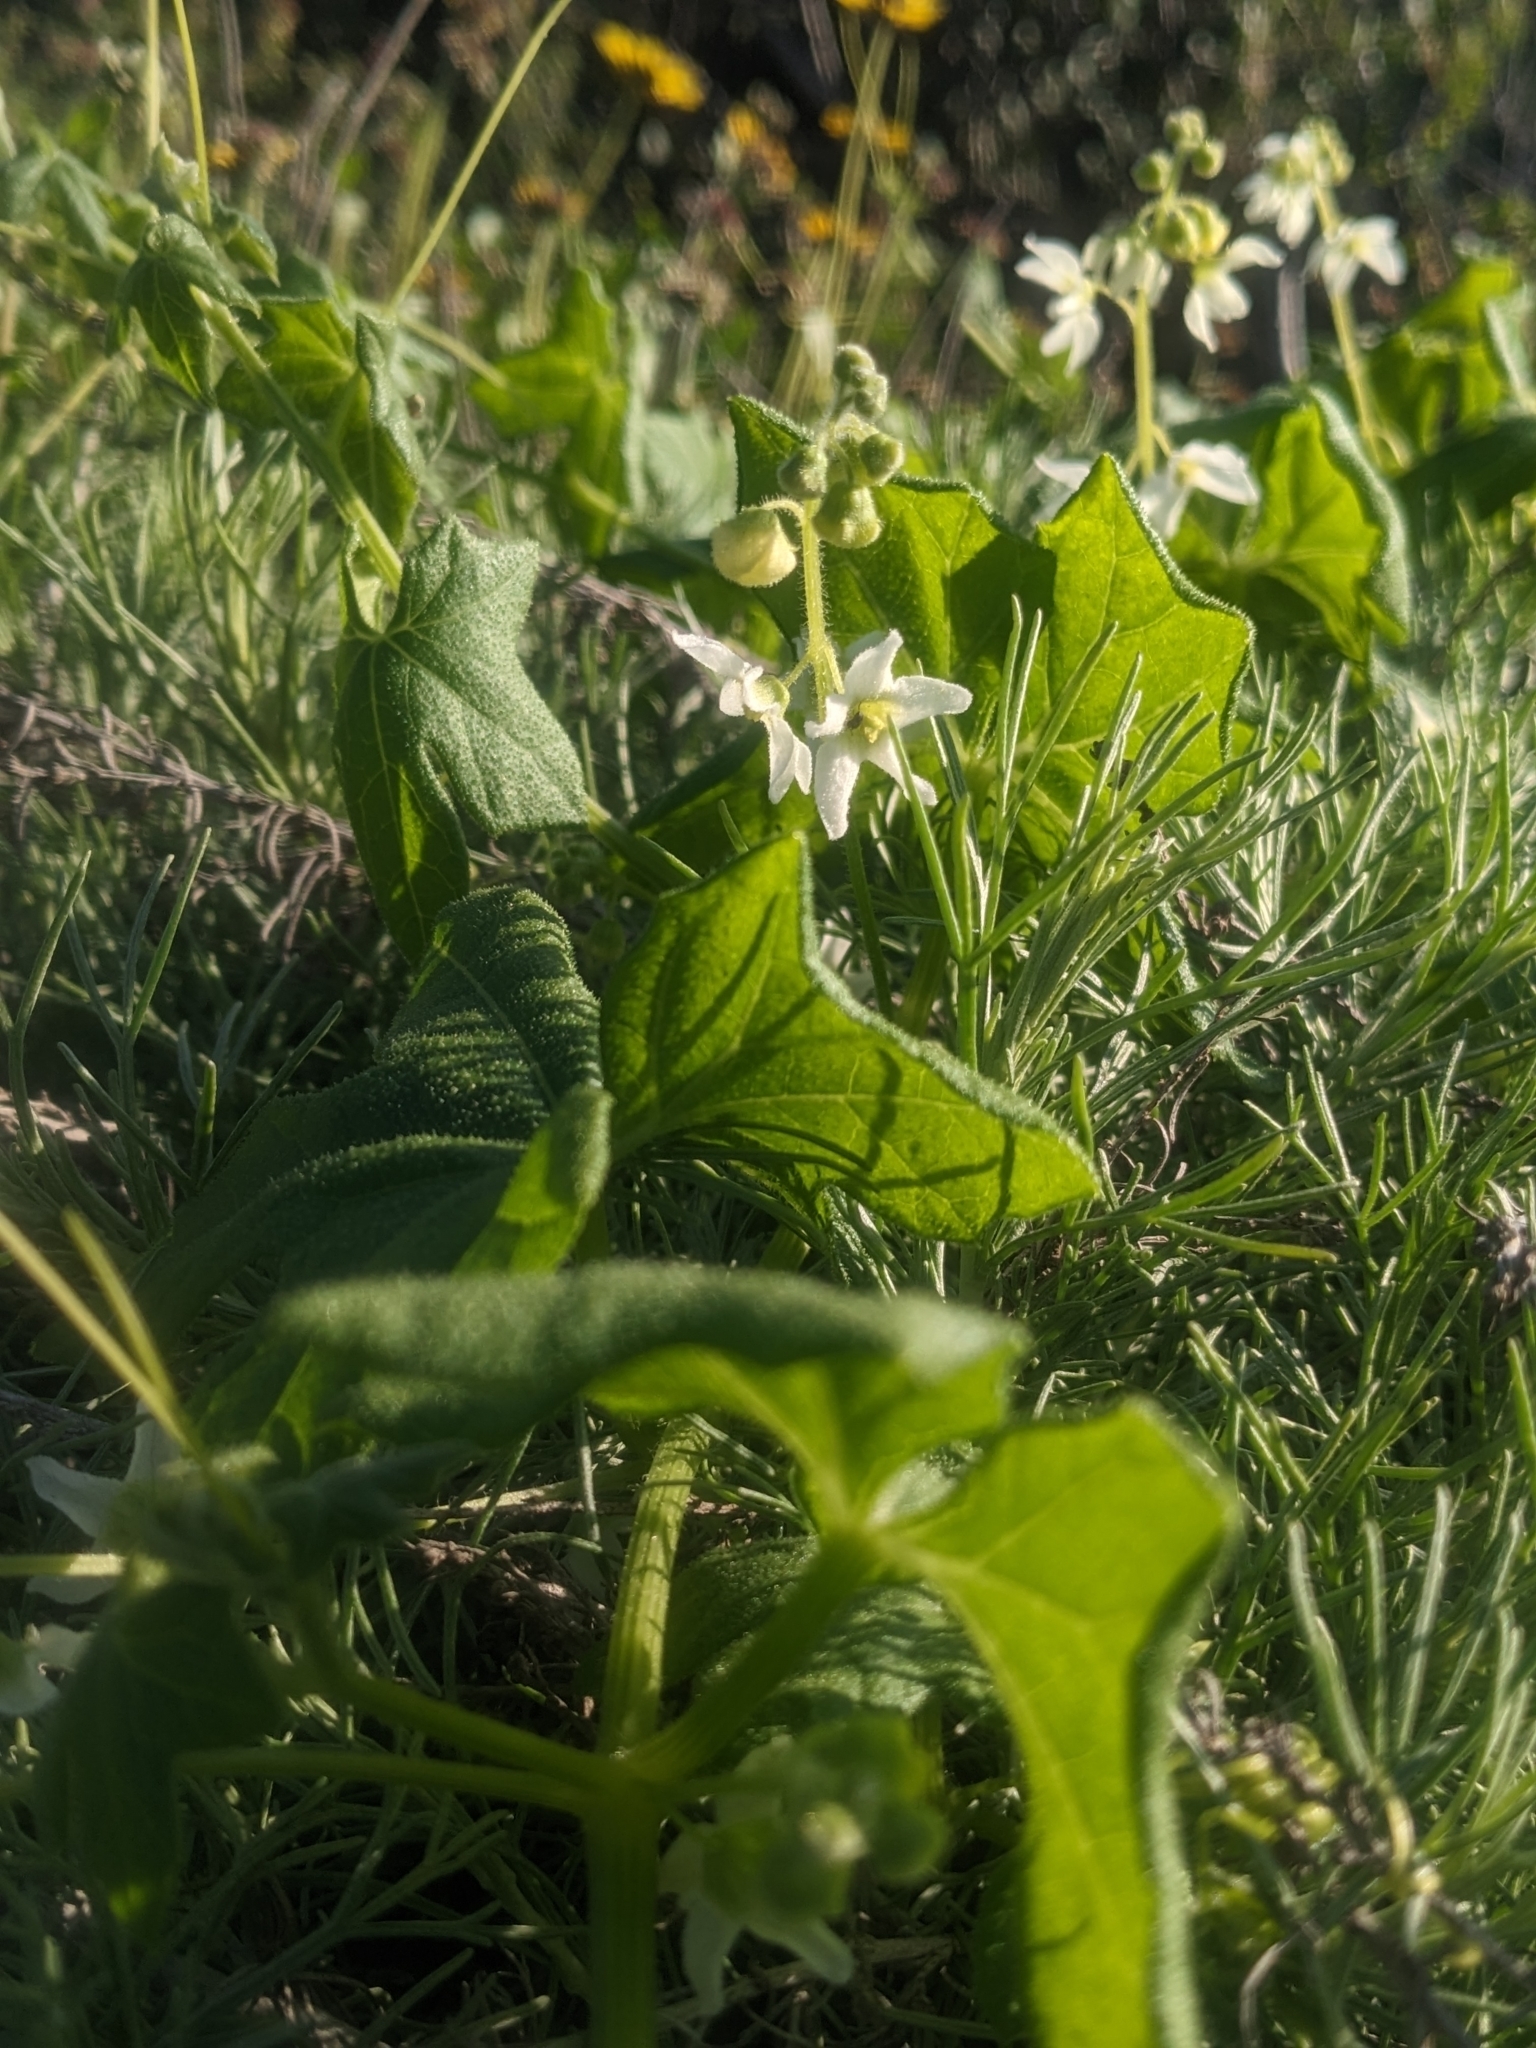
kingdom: Plantae
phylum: Tracheophyta
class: Magnoliopsida
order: Cucurbitales
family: Cucurbitaceae
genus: Marah
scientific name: Marah macrocarpa
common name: Cucamonga manroot
